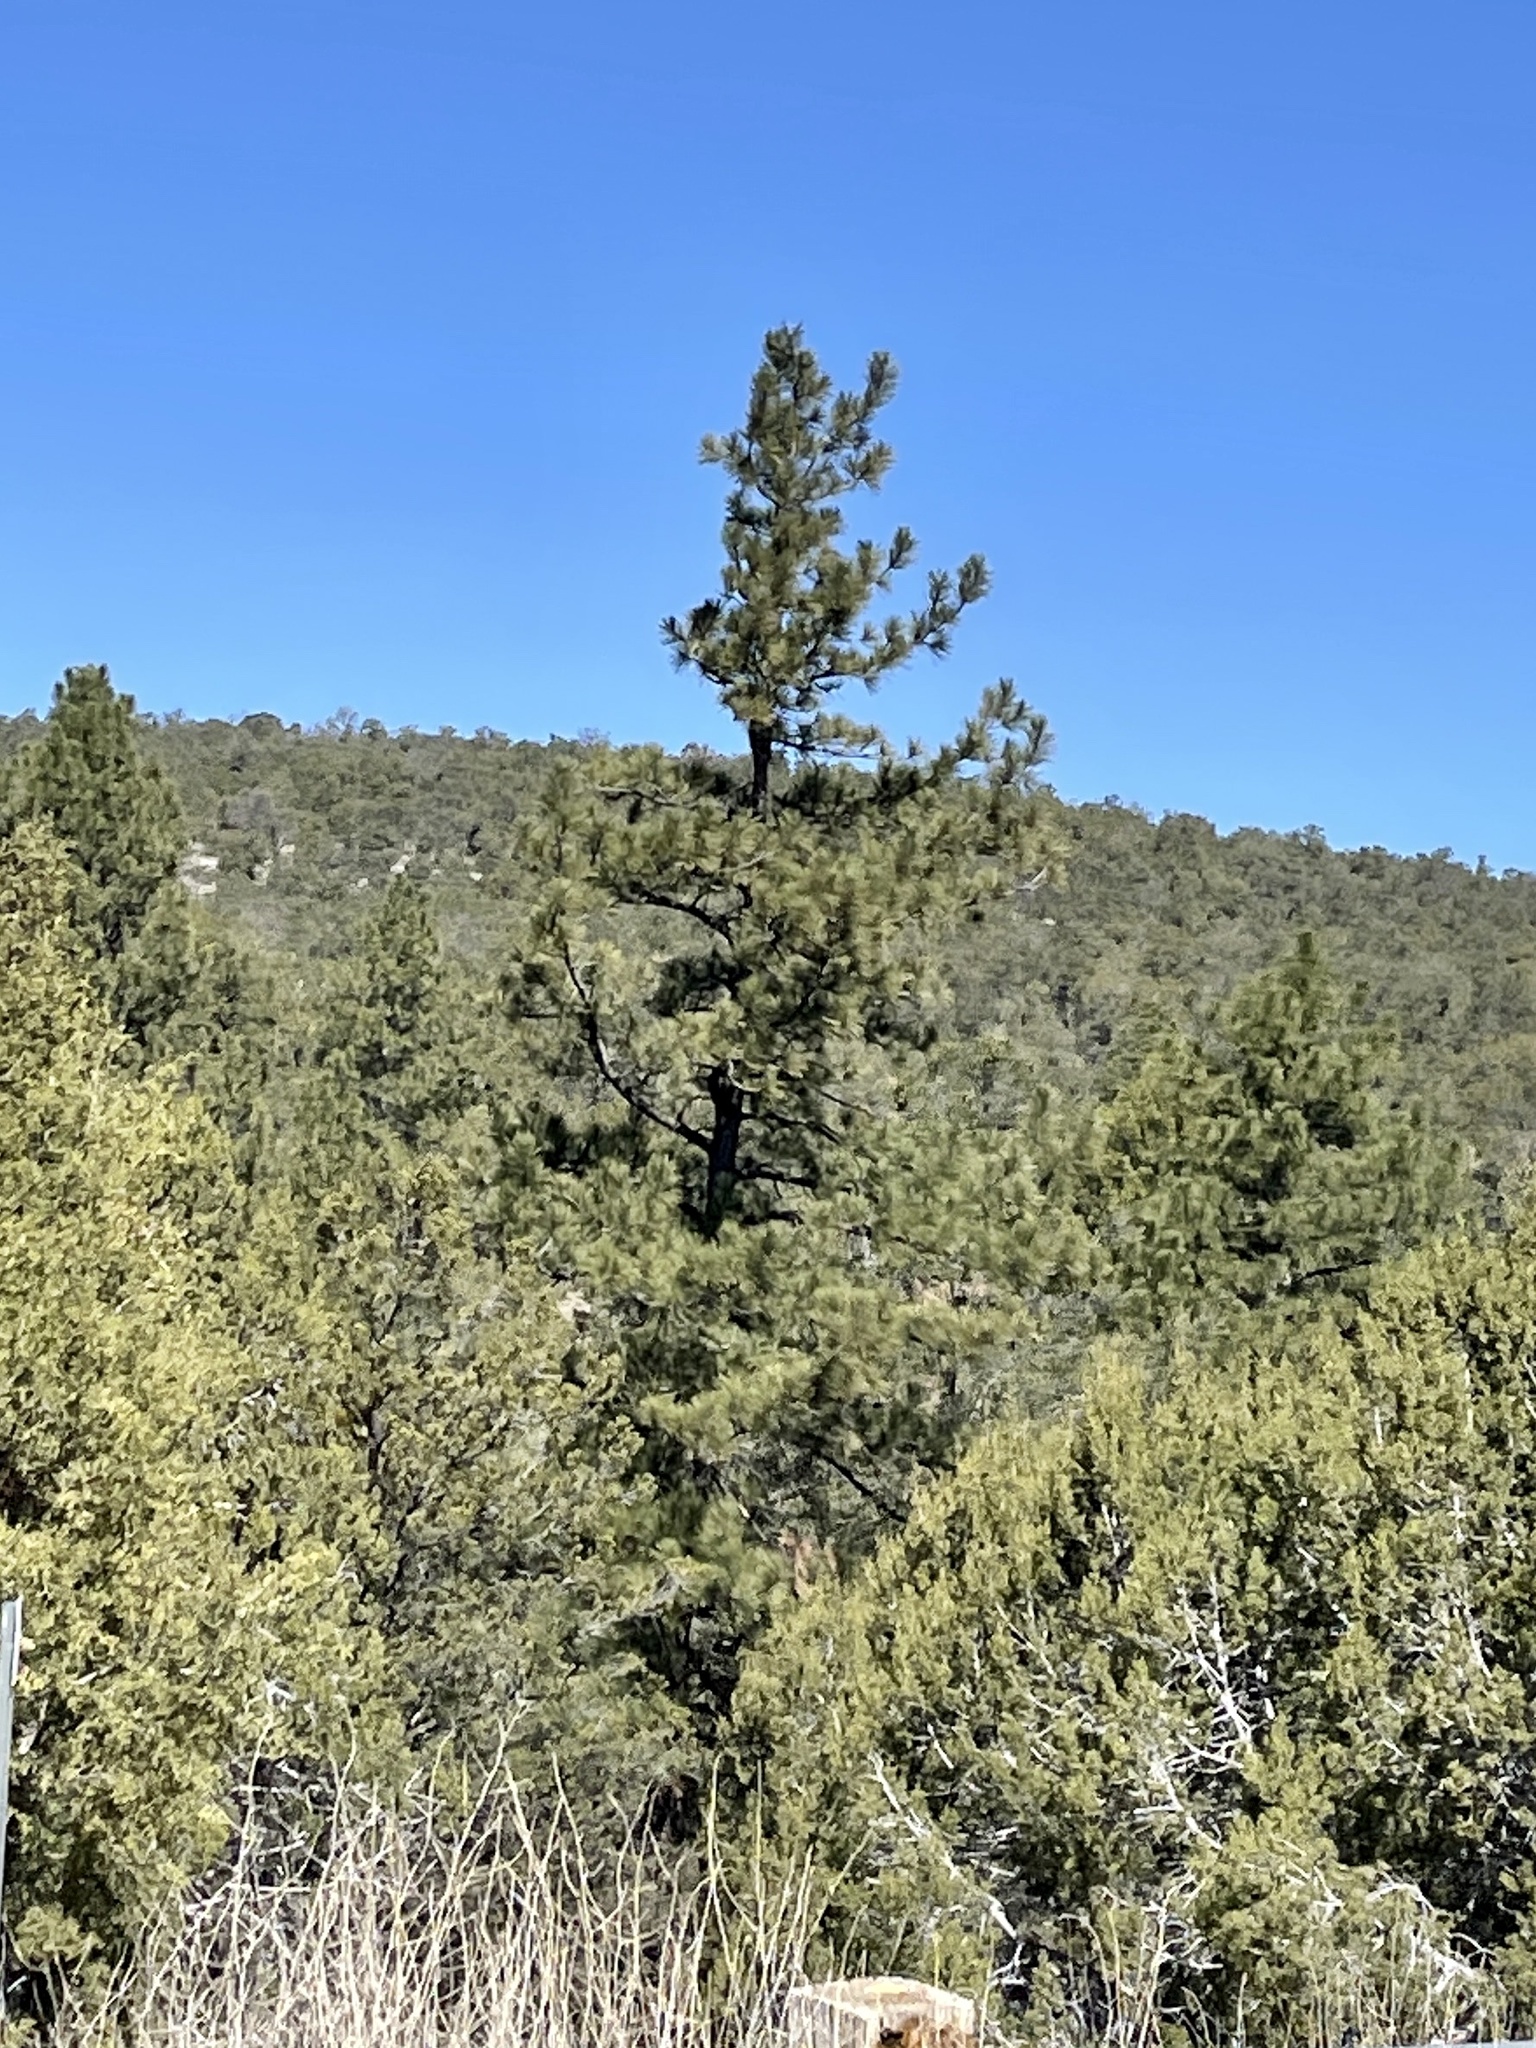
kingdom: Plantae
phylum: Tracheophyta
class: Pinopsida
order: Pinales
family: Pinaceae
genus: Pinus
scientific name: Pinus ponderosa
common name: Western yellow-pine
